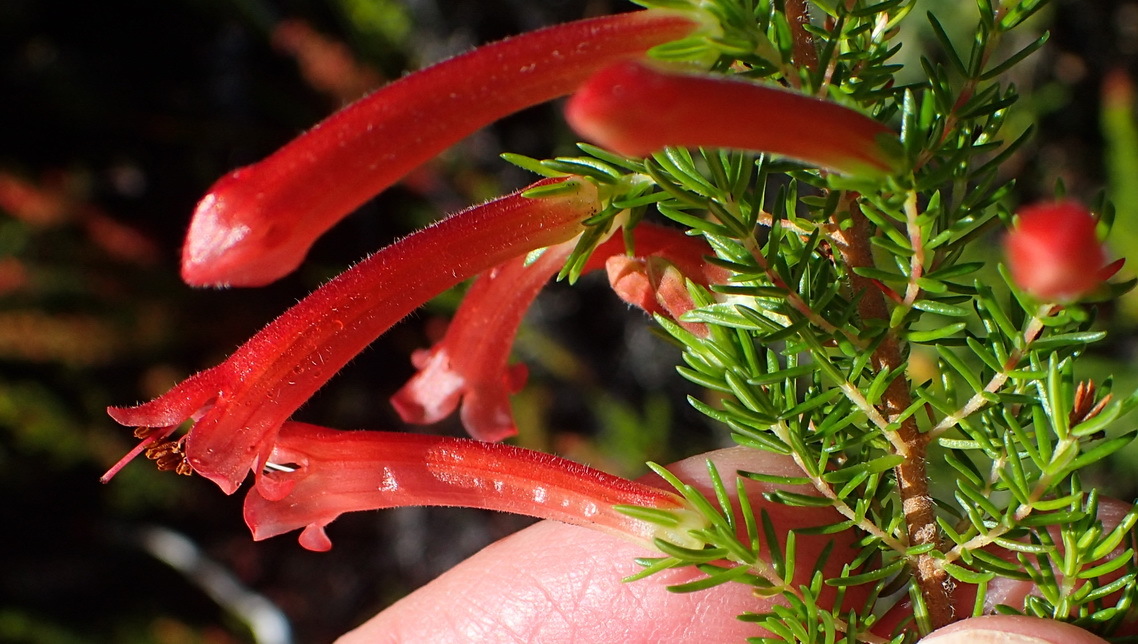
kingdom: Plantae
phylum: Tracheophyta
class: Magnoliopsida
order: Ericales
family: Ericaceae
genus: Erica
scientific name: Erica curviflora
